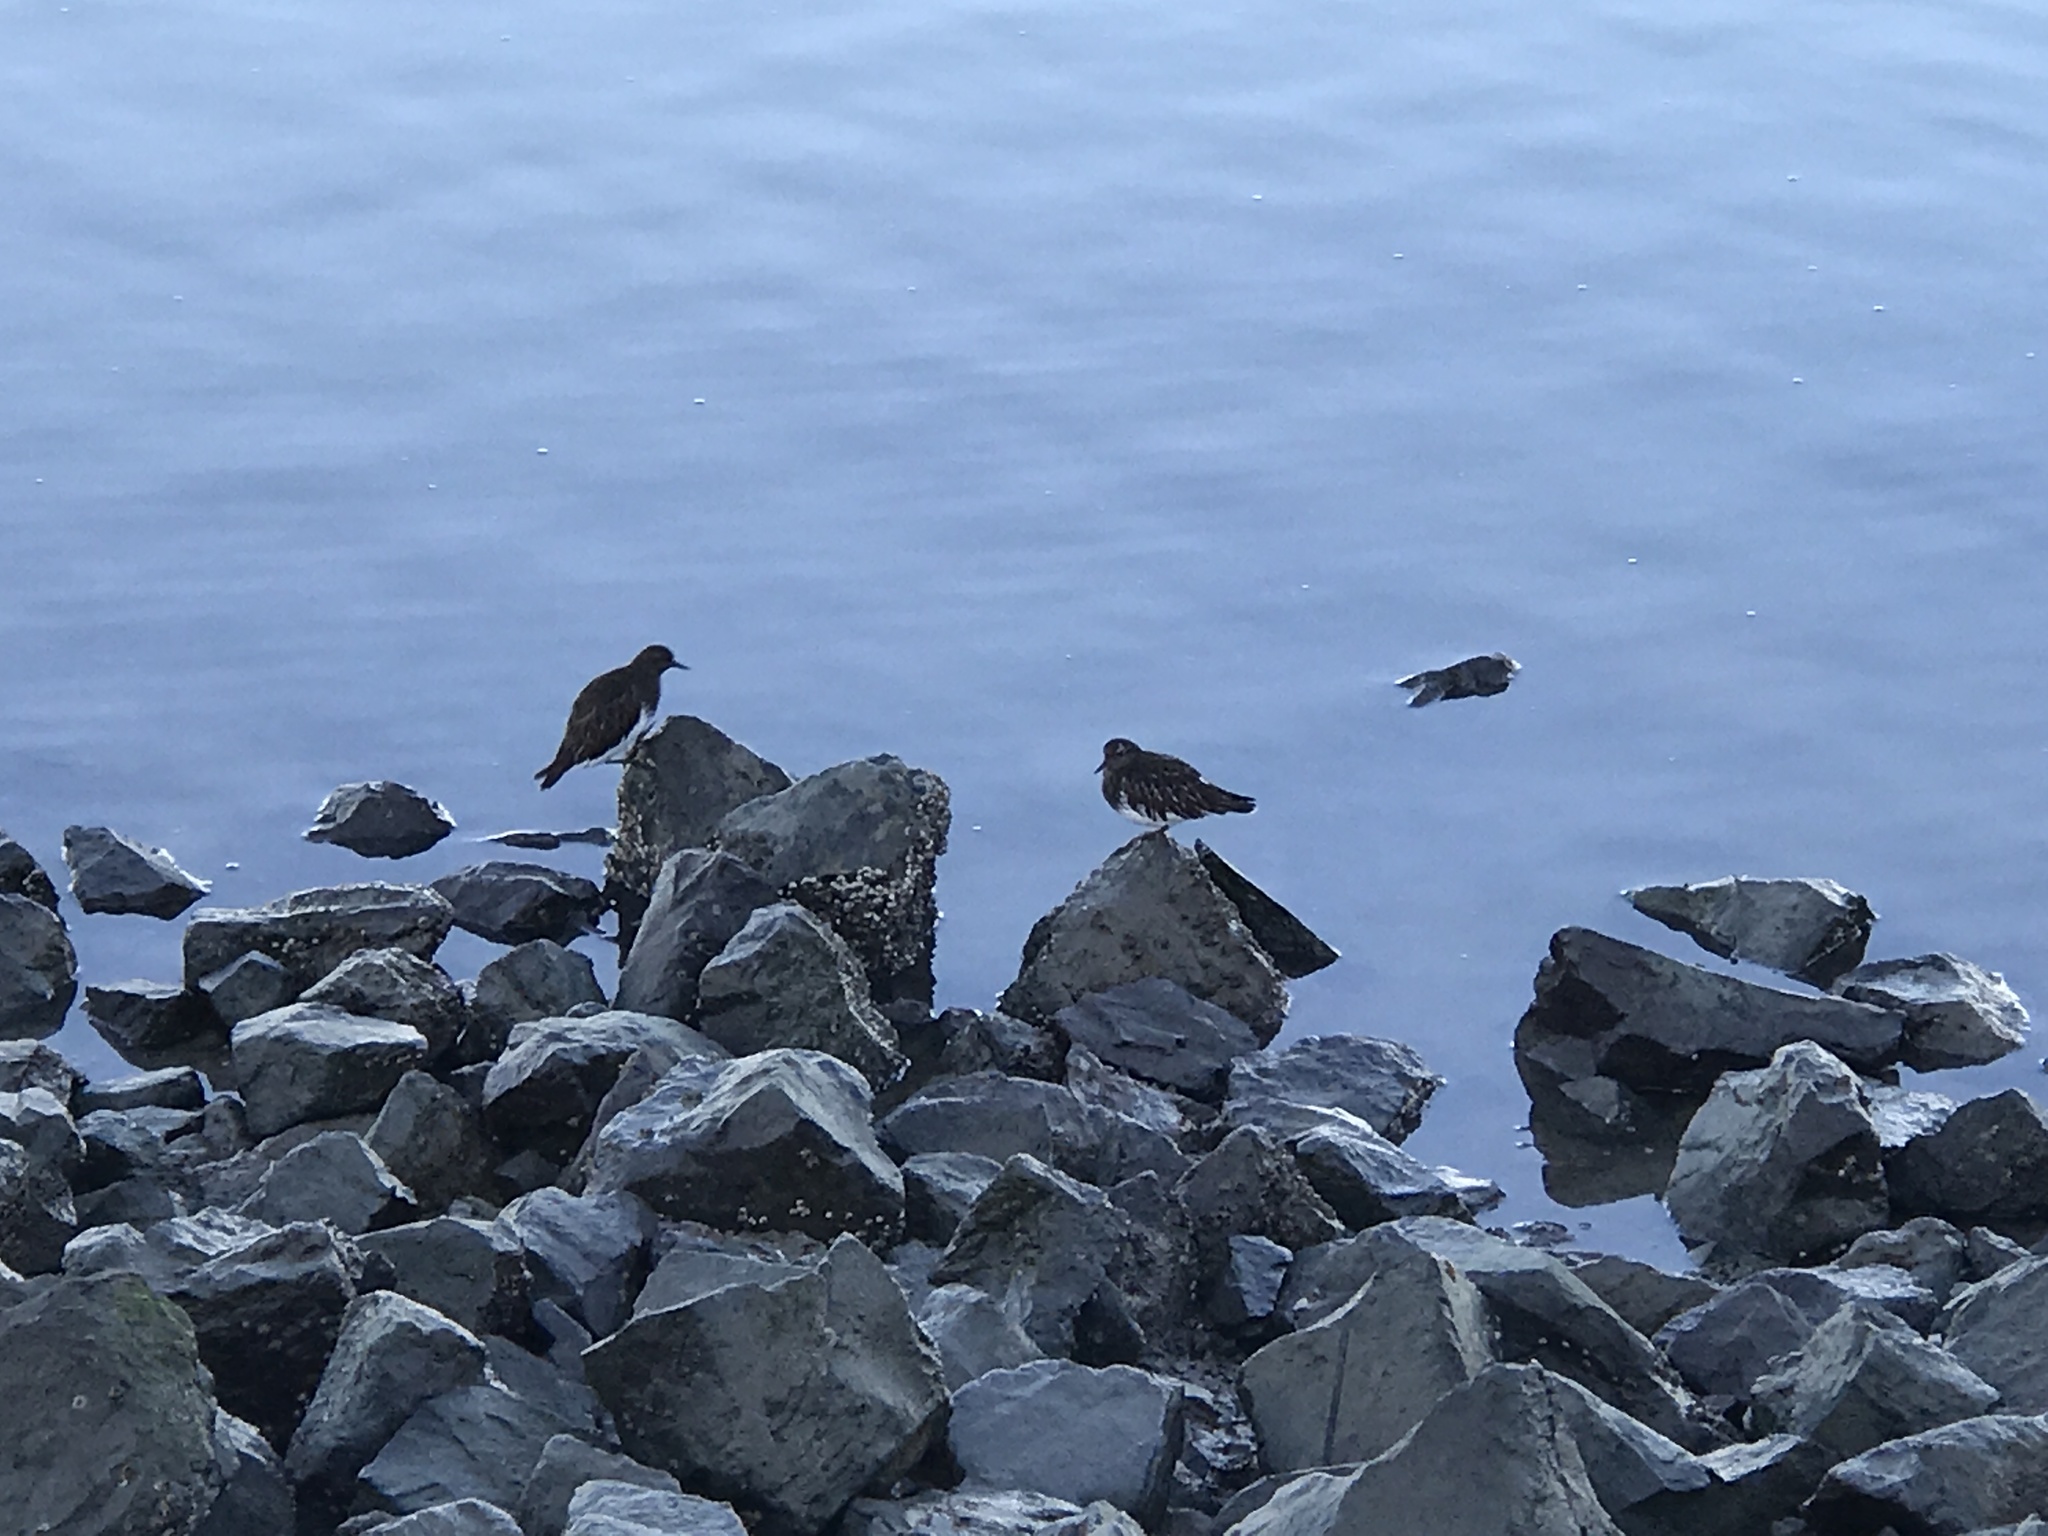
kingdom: Animalia
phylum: Chordata
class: Aves
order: Charadriiformes
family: Scolopacidae
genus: Arenaria
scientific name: Arenaria melanocephala
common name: Black turnstone
